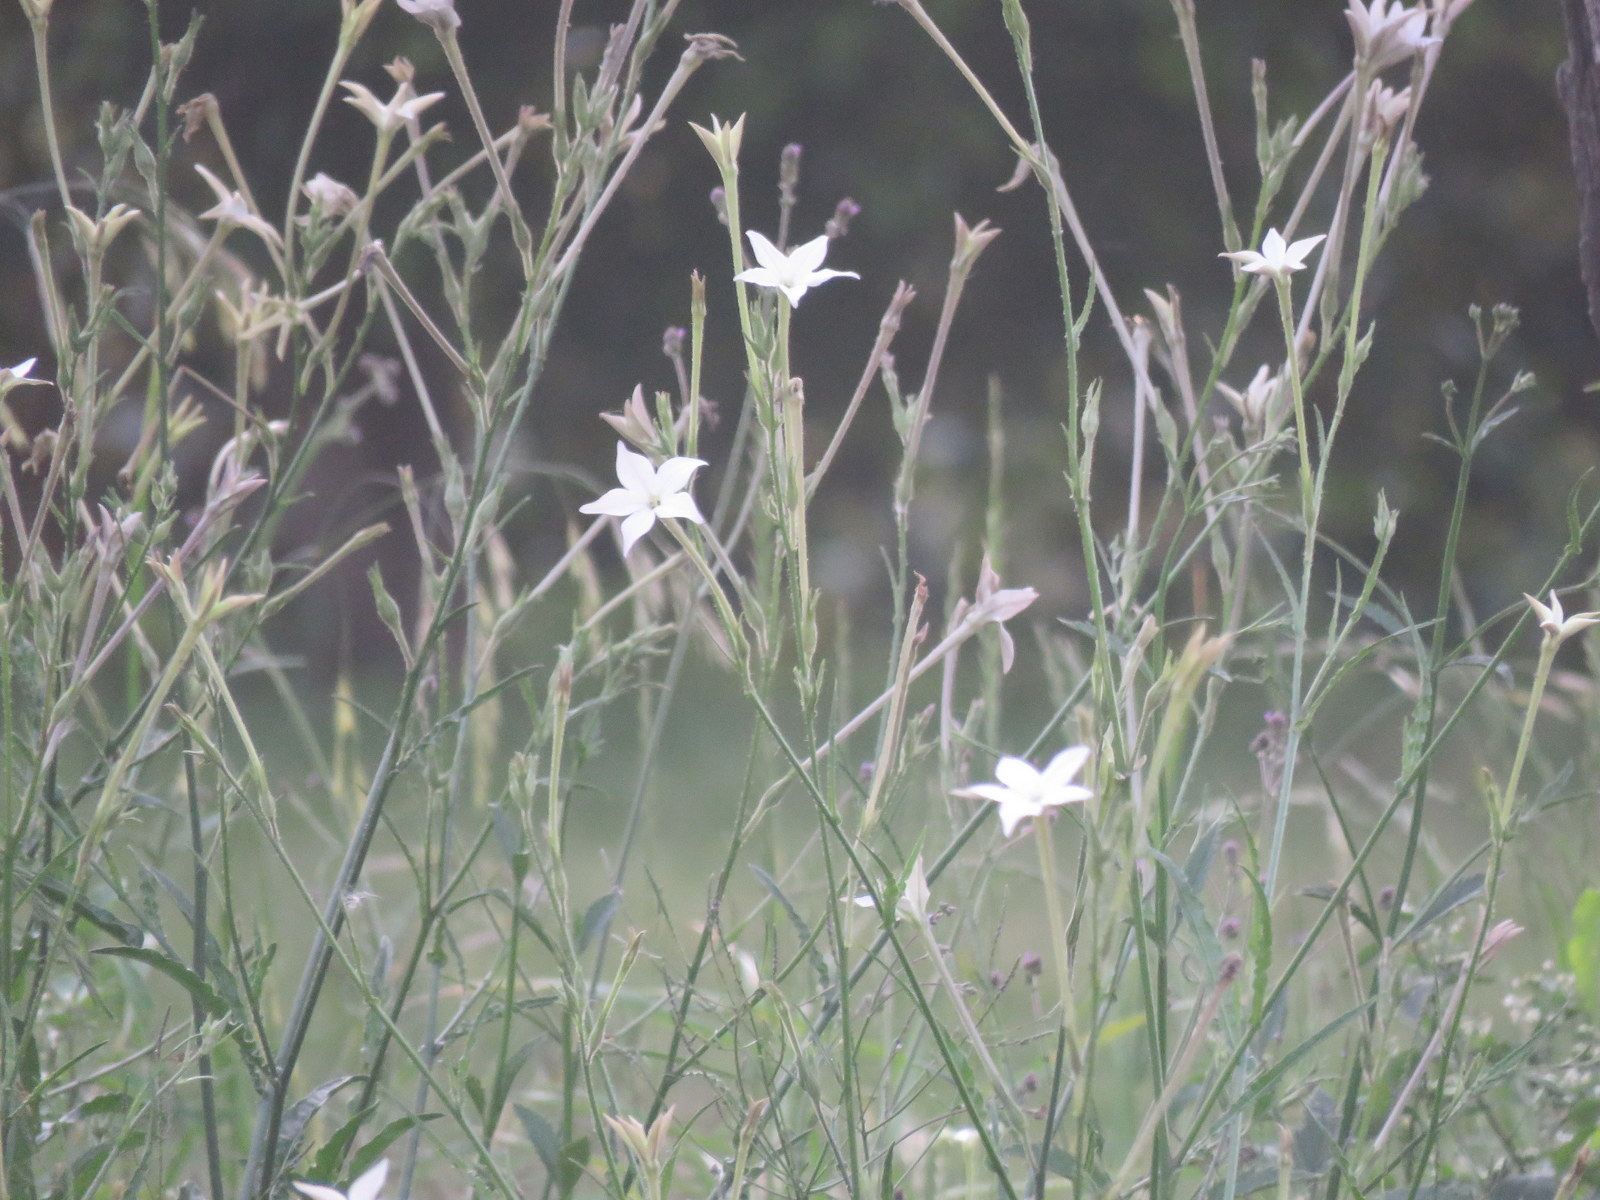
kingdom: Plantae
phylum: Tracheophyta
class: Magnoliopsida
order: Solanales
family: Solanaceae
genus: Nicotiana
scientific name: Nicotiana longiflora
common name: Long-flowered tobacco
